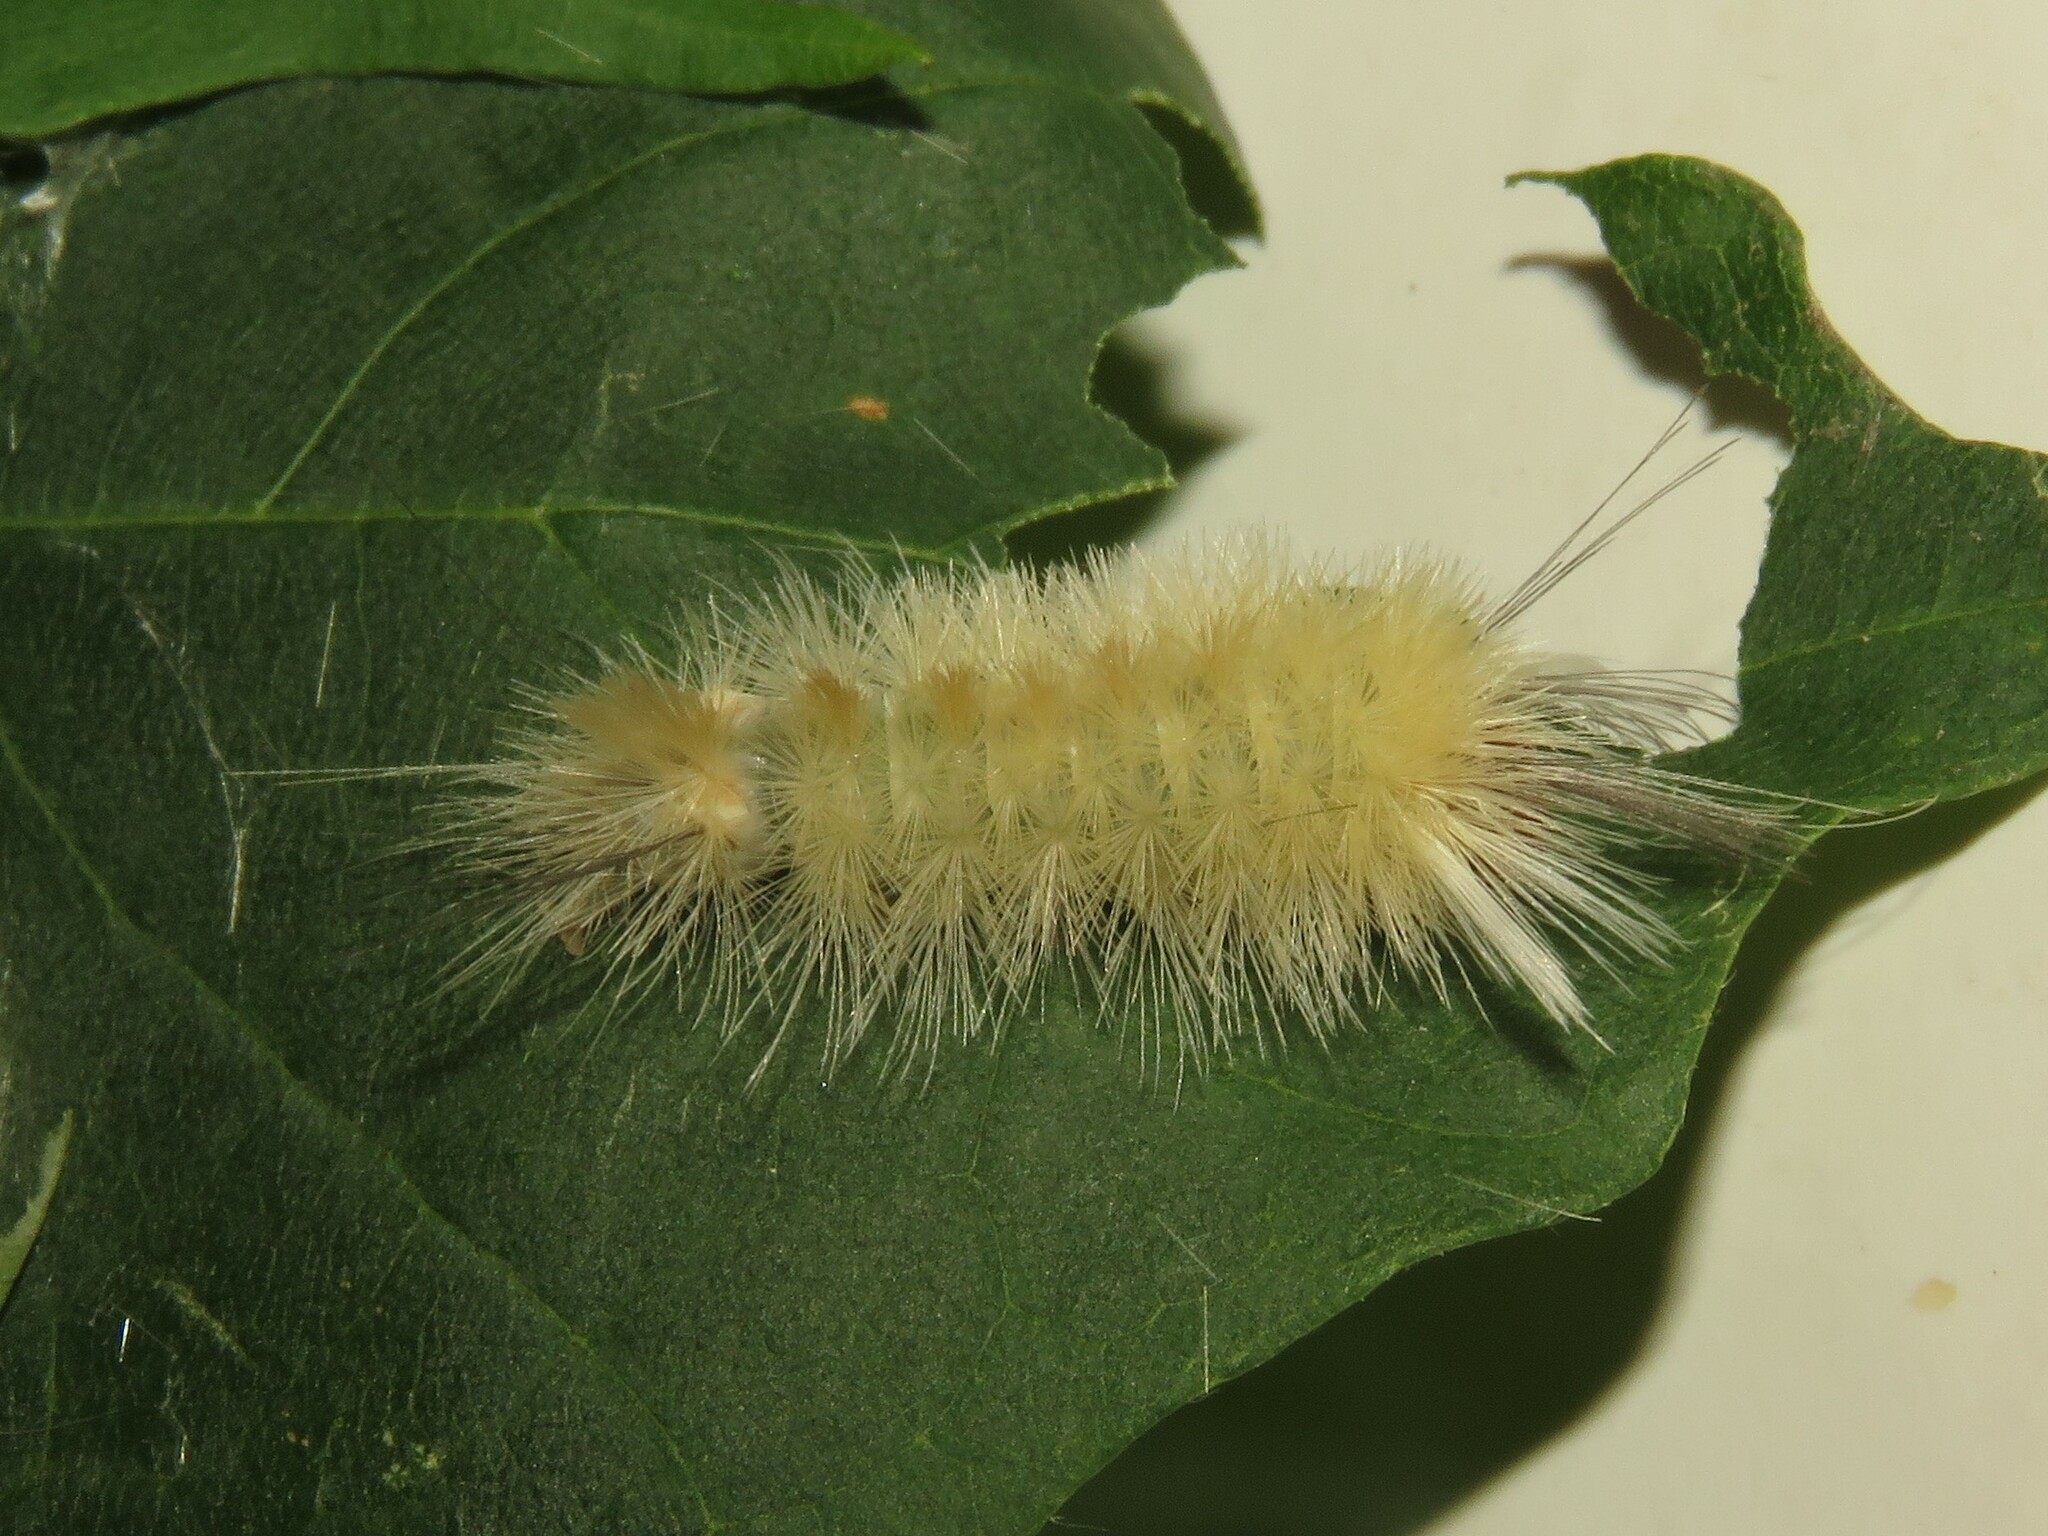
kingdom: Animalia
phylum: Arthropoda
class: Insecta
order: Lepidoptera
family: Erebidae
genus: Halysidota
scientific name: Halysidota tessellaris
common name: Banded tussock moth
